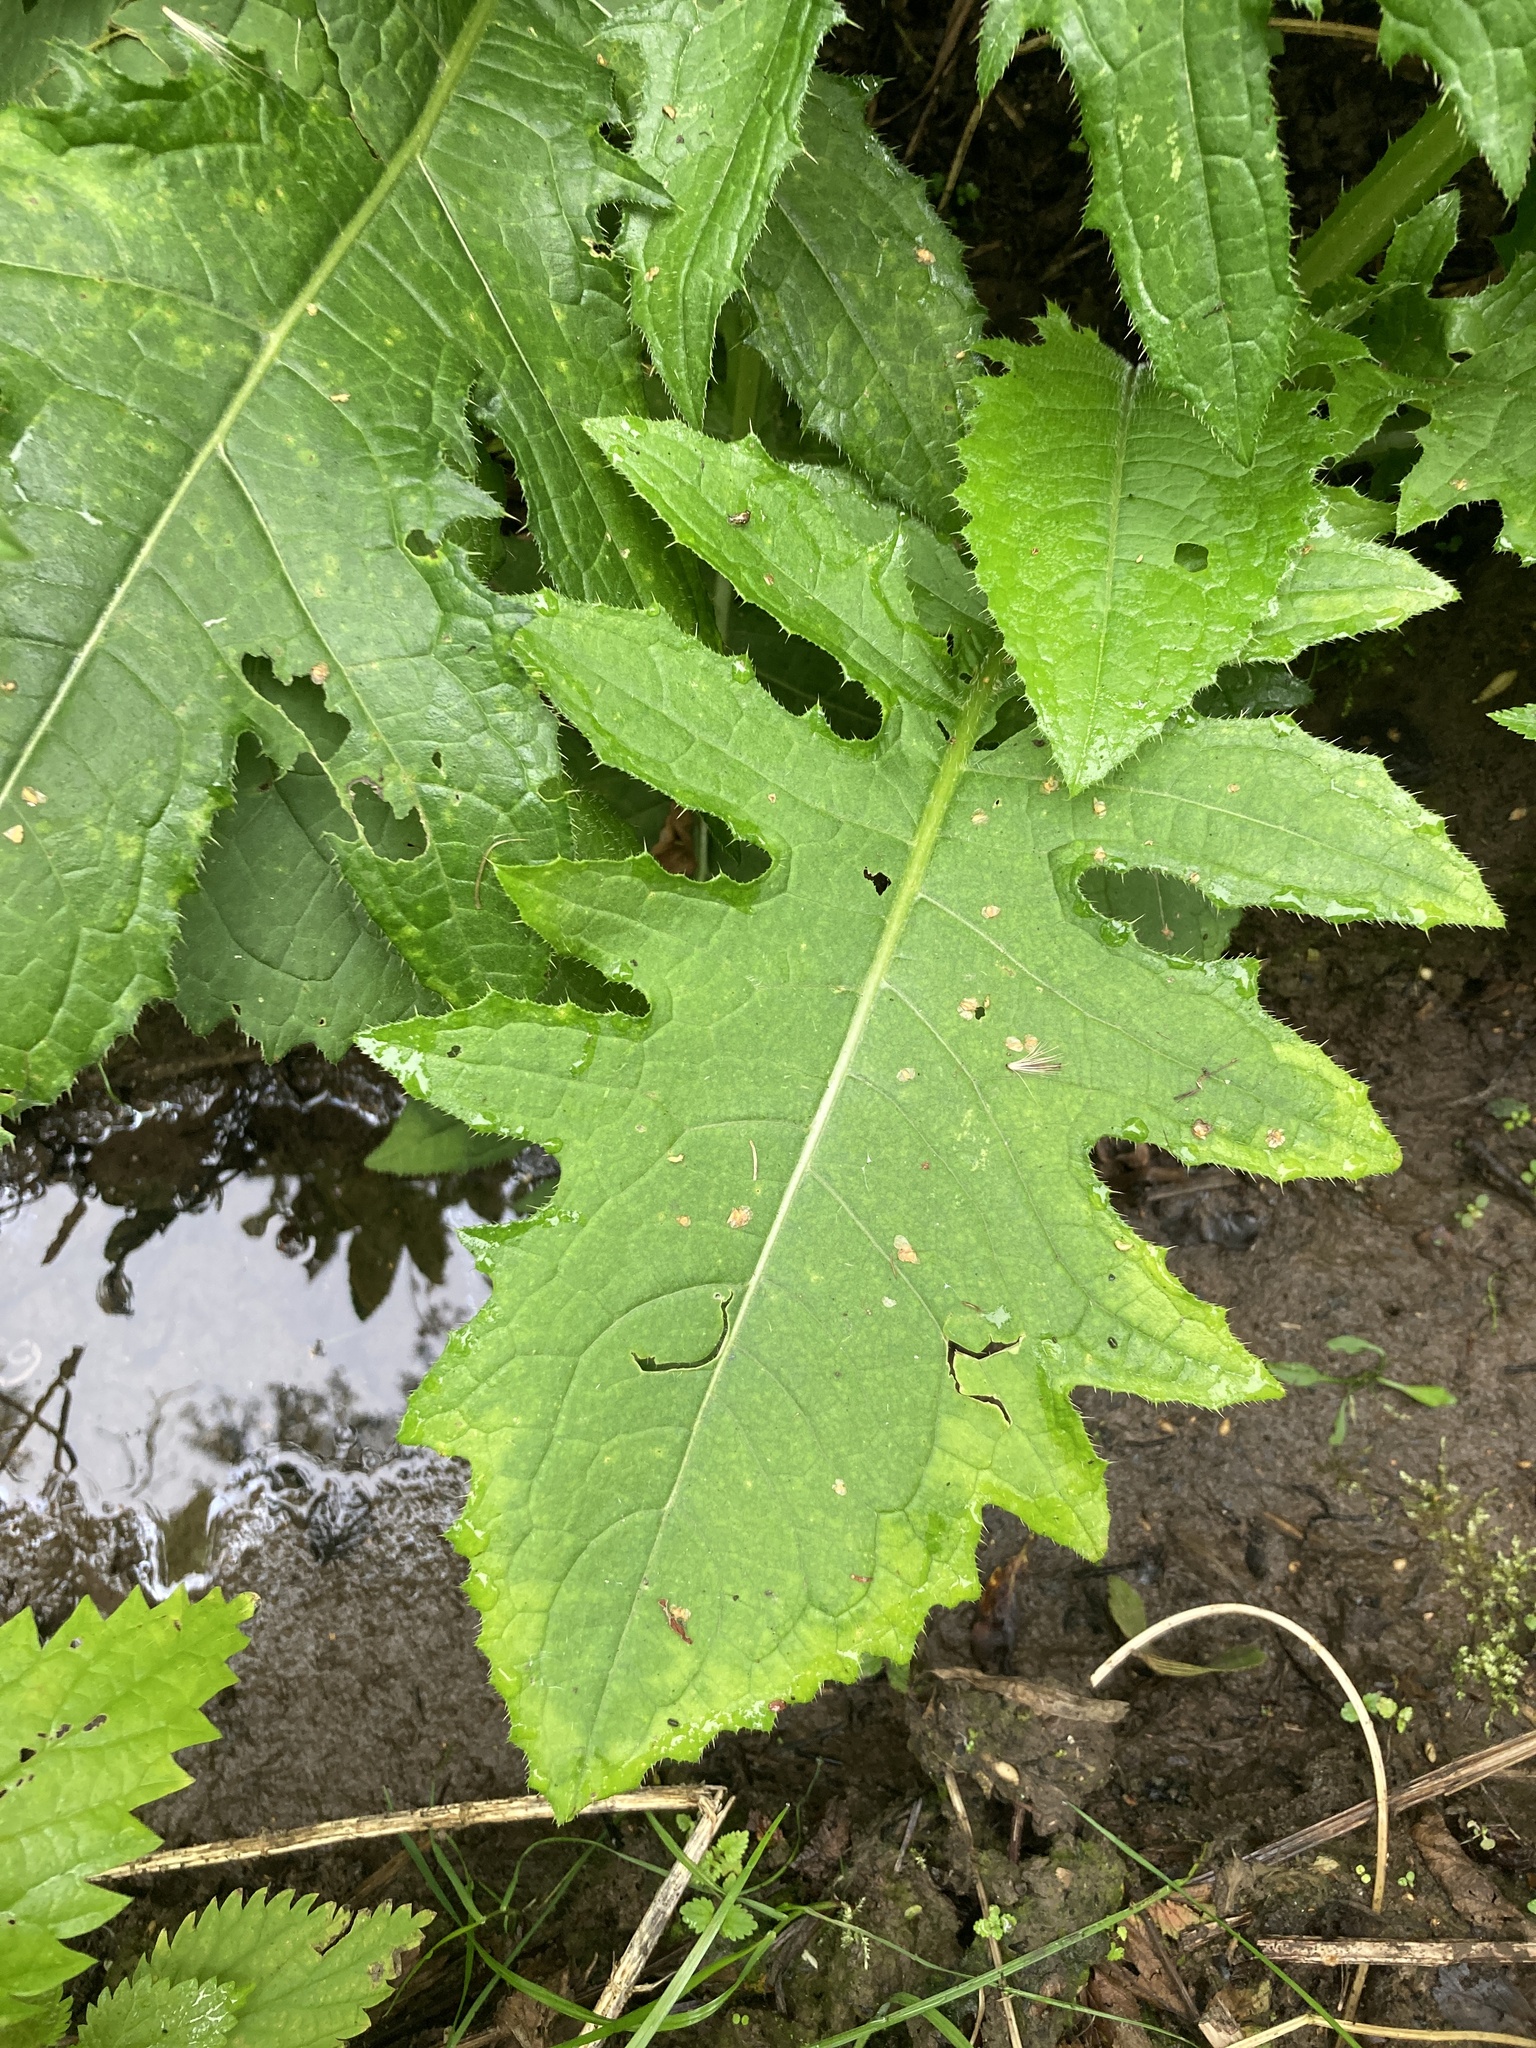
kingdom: Plantae
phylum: Tracheophyta
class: Magnoliopsida
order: Asterales
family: Asteraceae
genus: Cirsium
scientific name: Cirsium oleraceum
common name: Cabbage thistle
